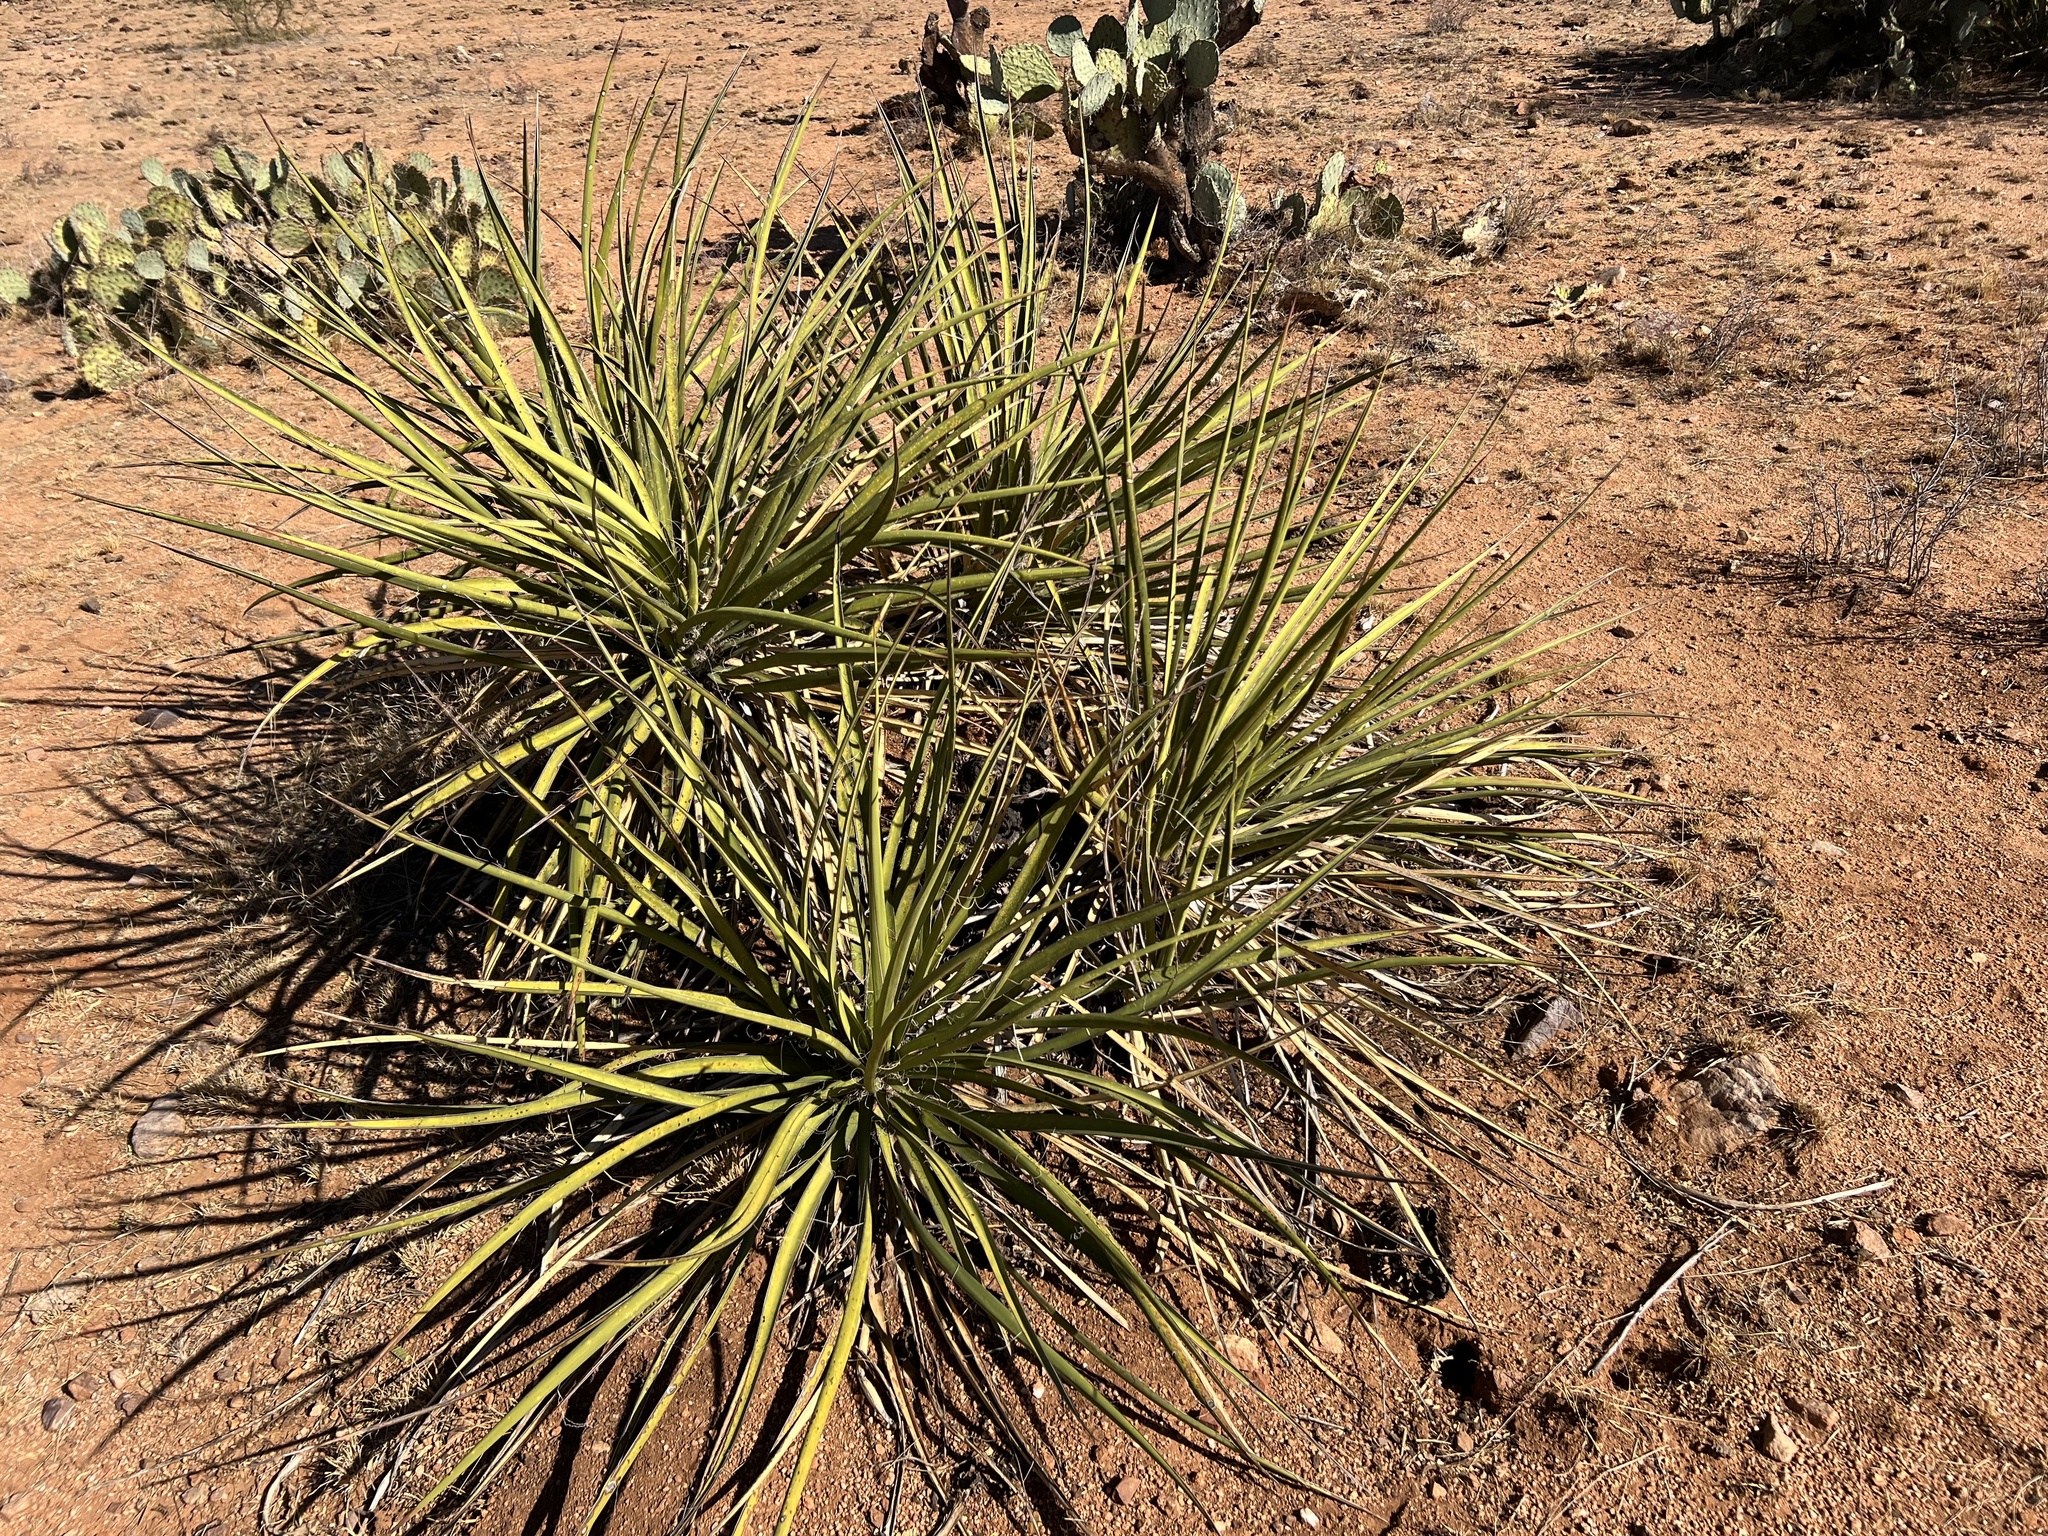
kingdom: Plantae
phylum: Tracheophyta
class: Liliopsida
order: Asparagales
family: Asparagaceae
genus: Yucca
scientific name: Yucca baccata
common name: Banana yucca
